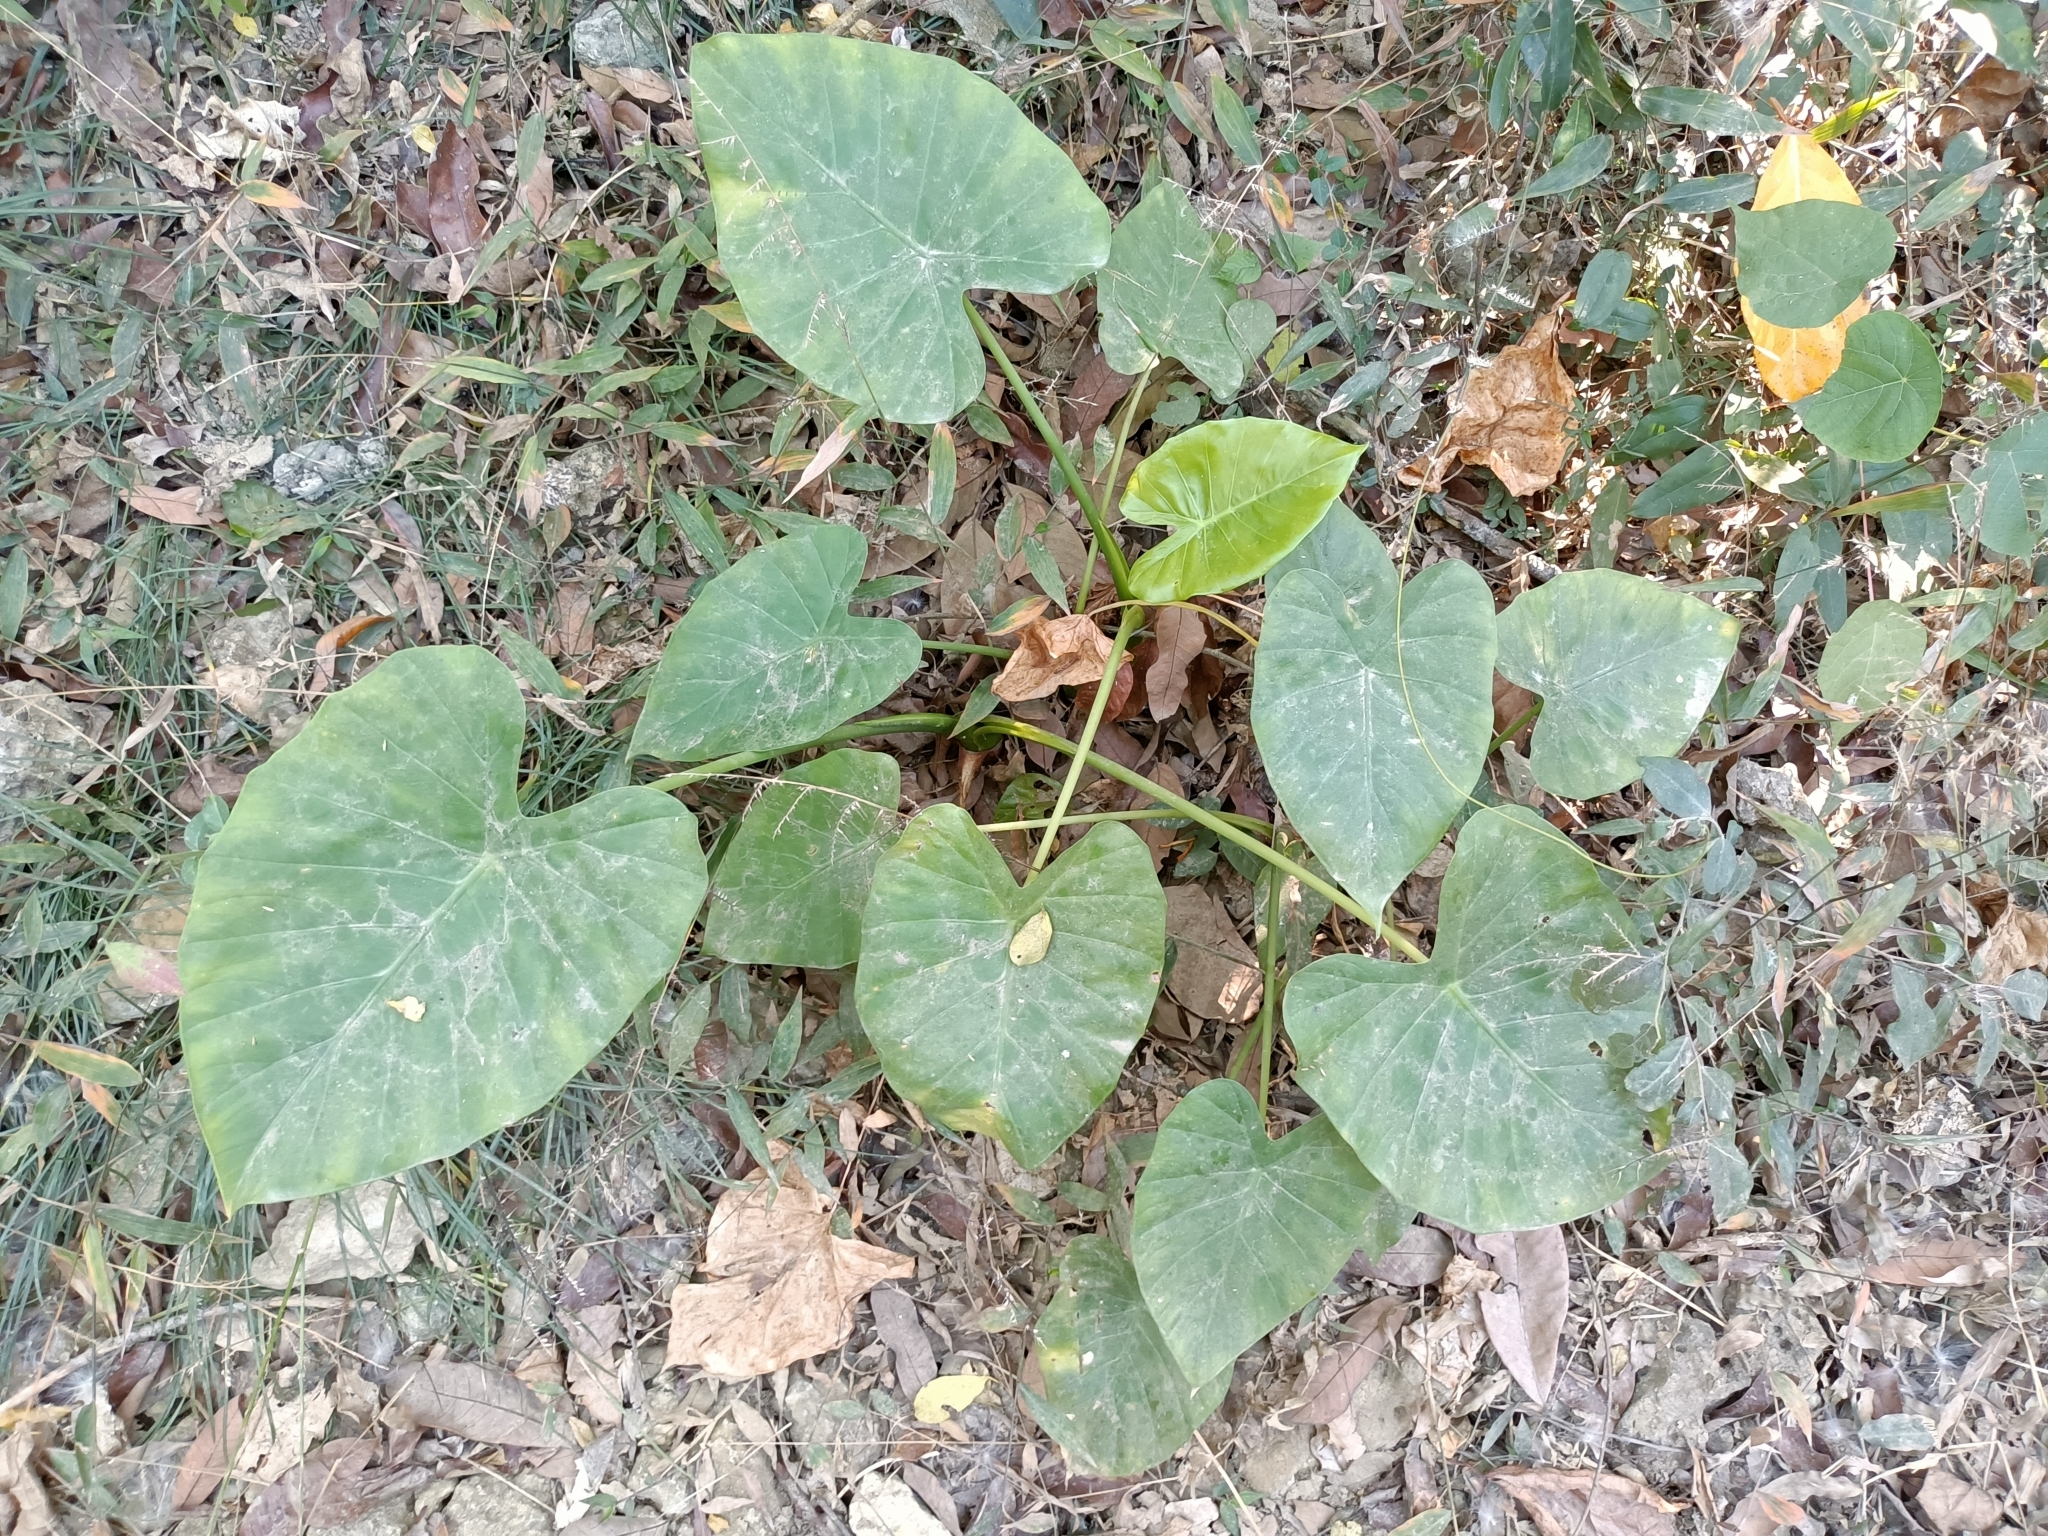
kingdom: Plantae
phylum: Tracheophyta
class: Liliopsida
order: Alismatales
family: Araceae
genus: Alocasia
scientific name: Alocasia odora
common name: Asian taro
